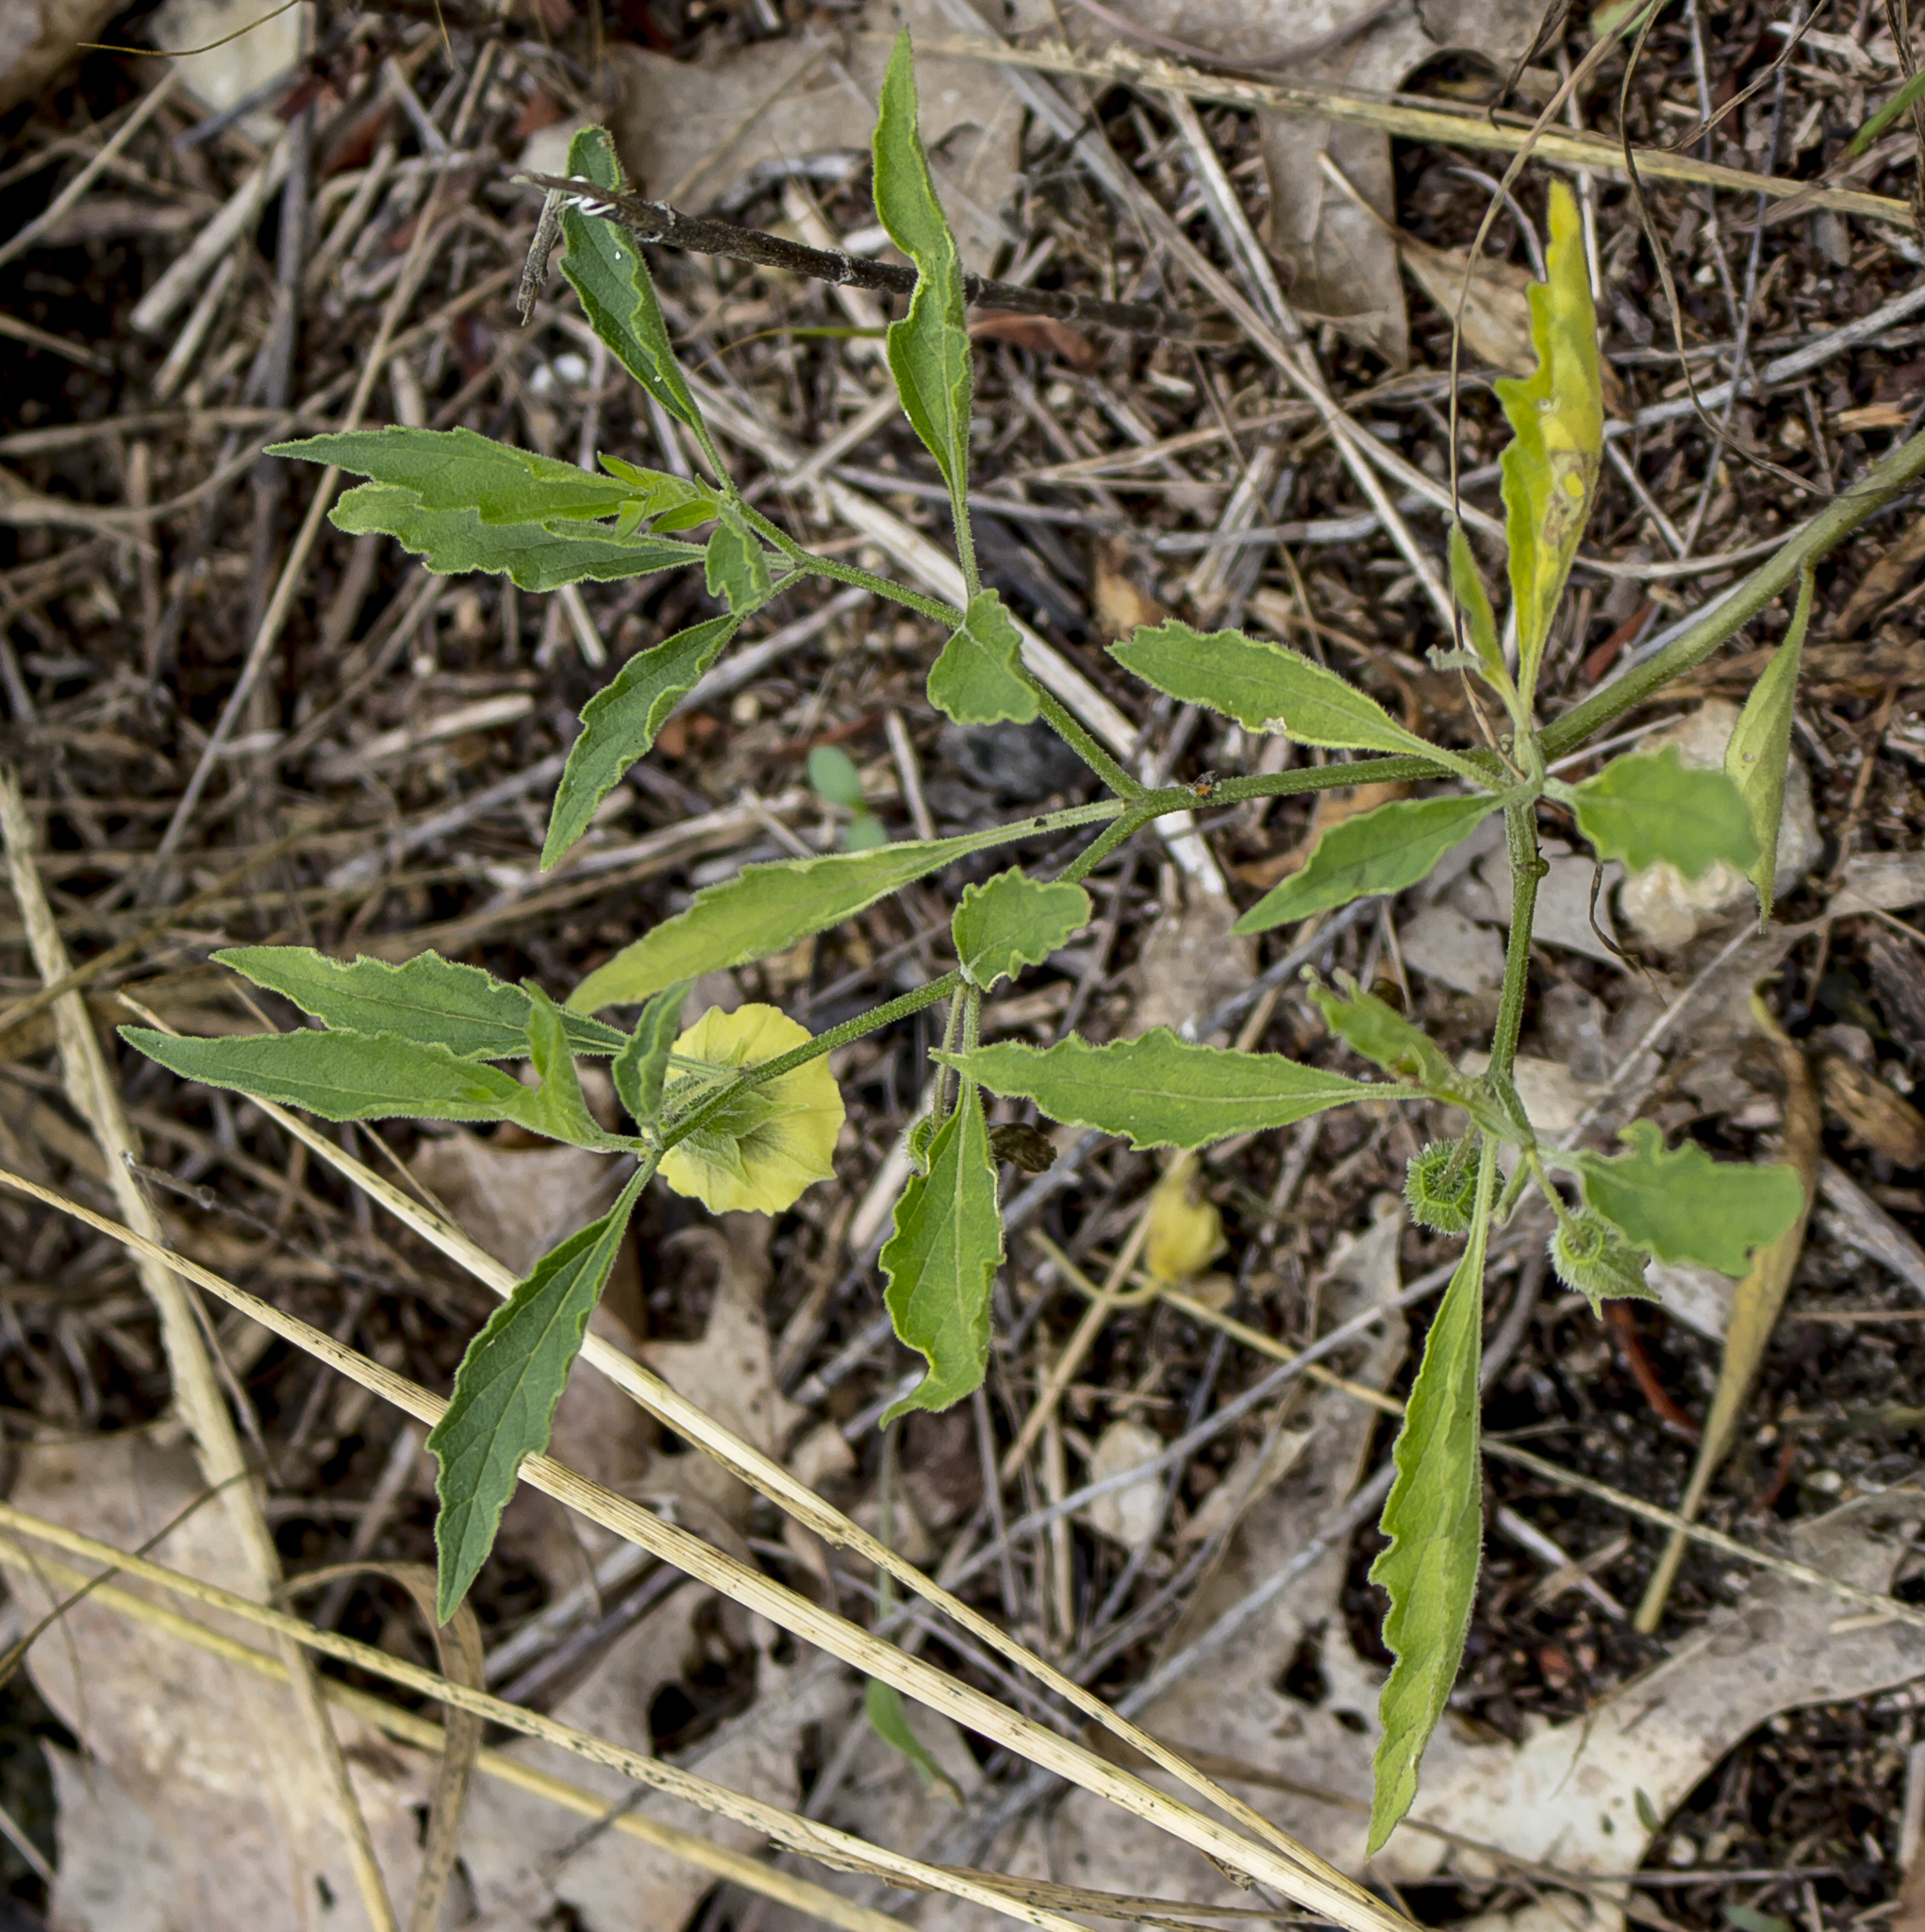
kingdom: Plantae
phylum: Tracheophyta
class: Magnoliopsida
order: Solanales
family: Solanaceae
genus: Physalis
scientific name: Physalis virginiana
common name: Virginia ground-cherry
